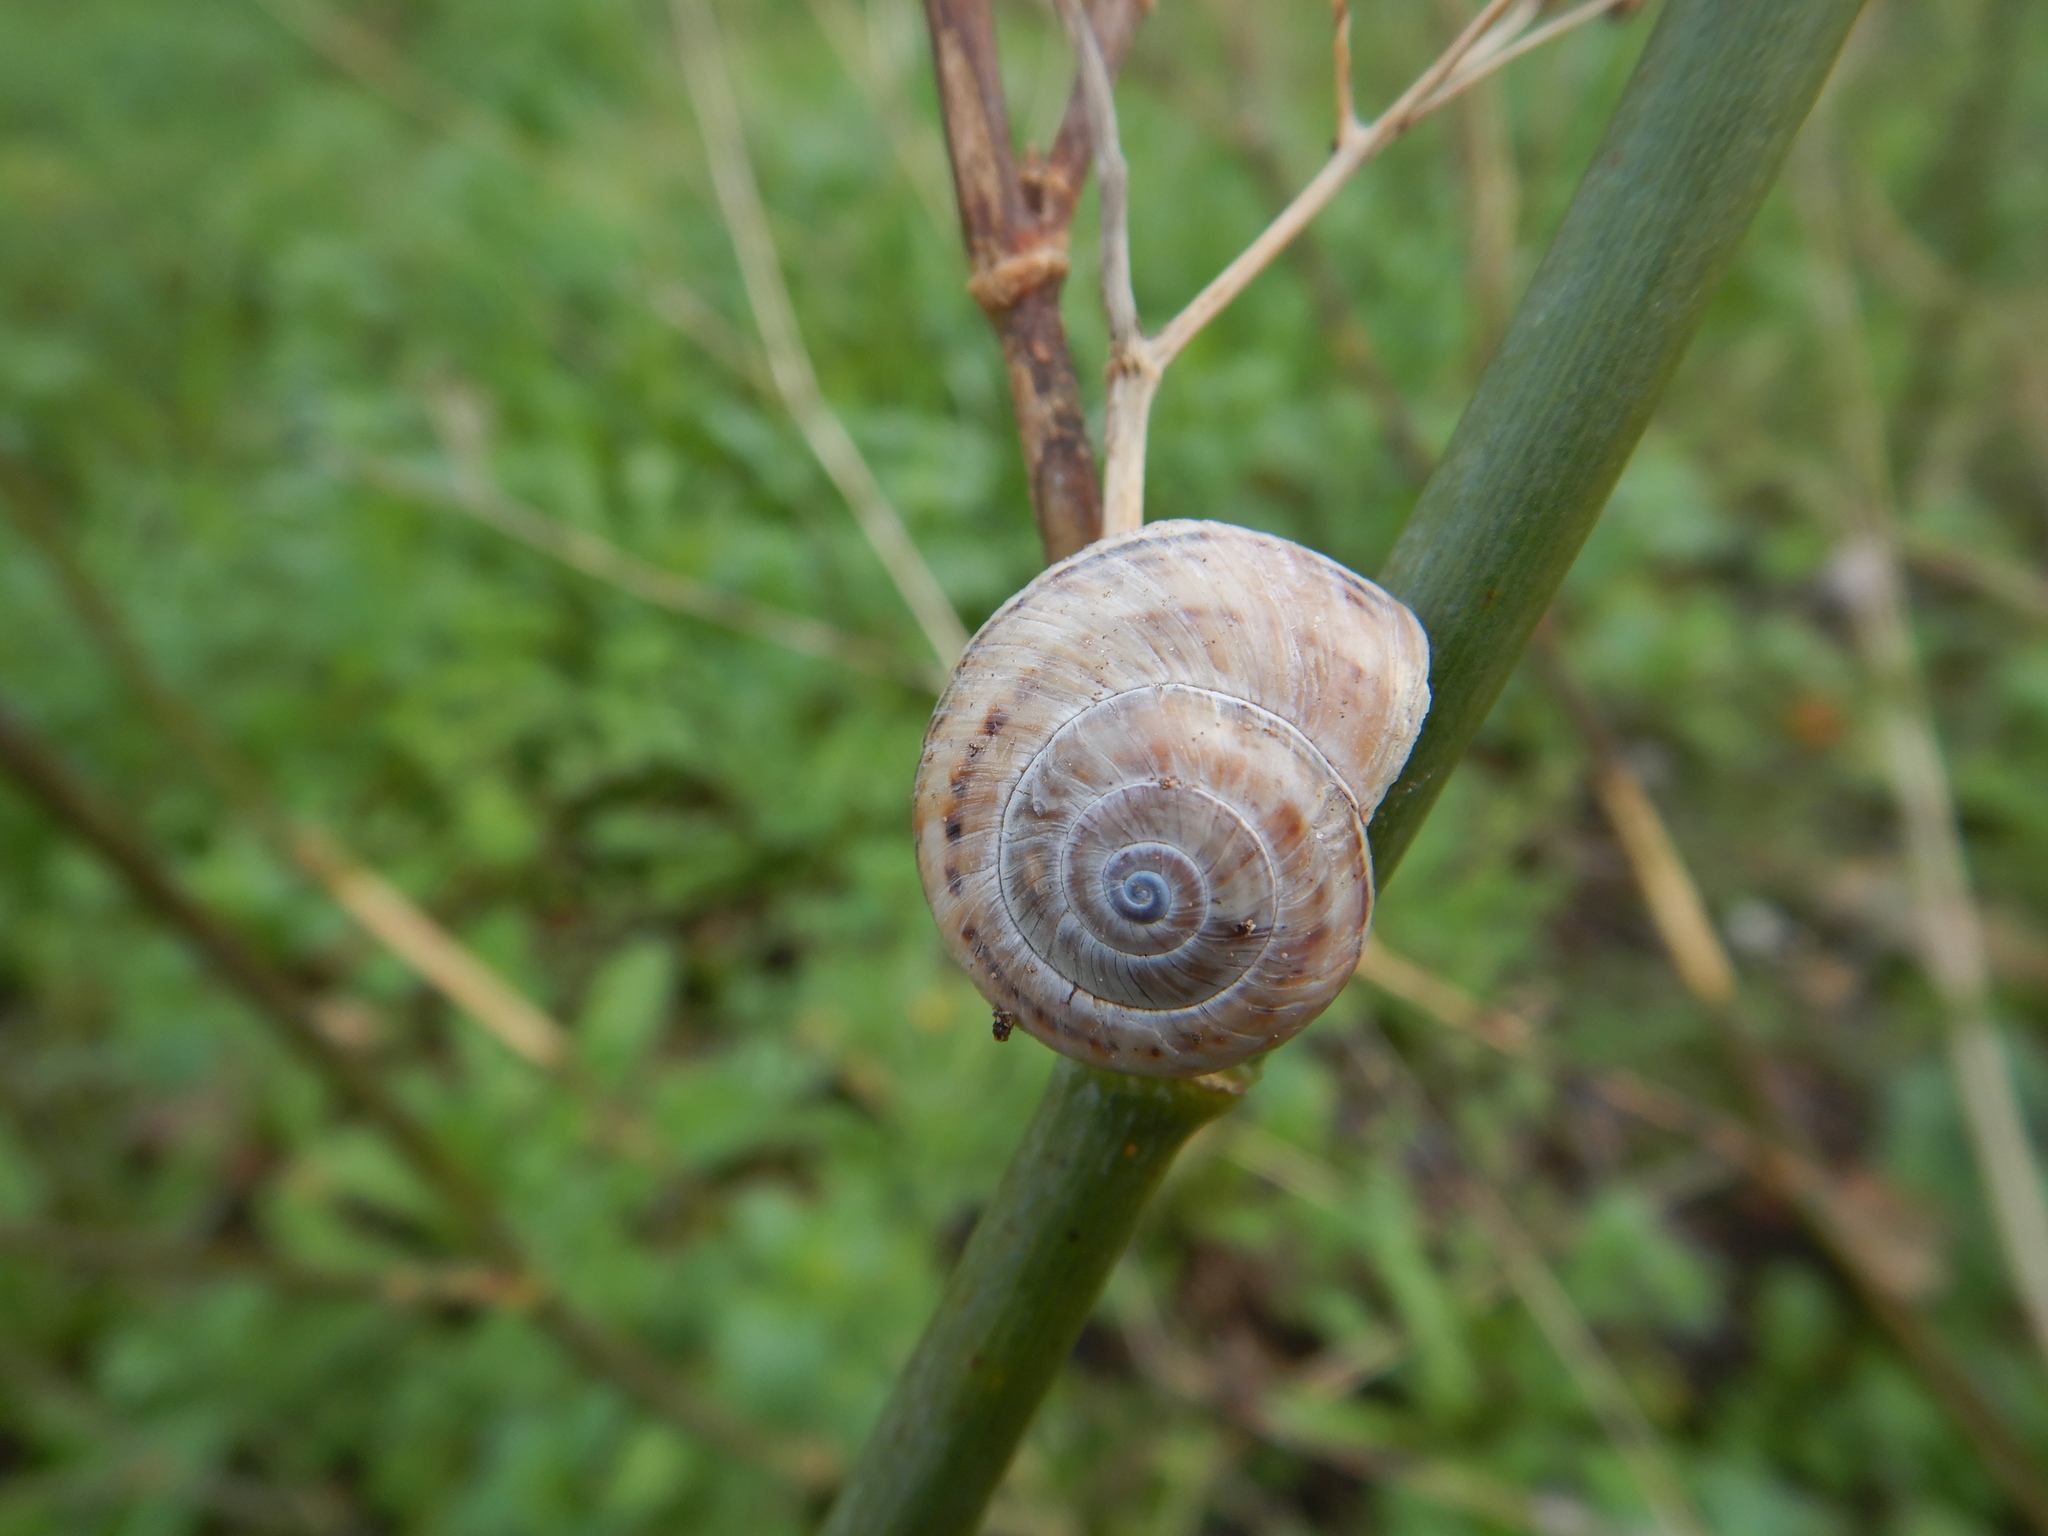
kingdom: Animalia
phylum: Mollusca
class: Gastropoda
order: Stylommatophora
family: Helicidae
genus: Theba
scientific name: Theba pisana
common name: White snail
